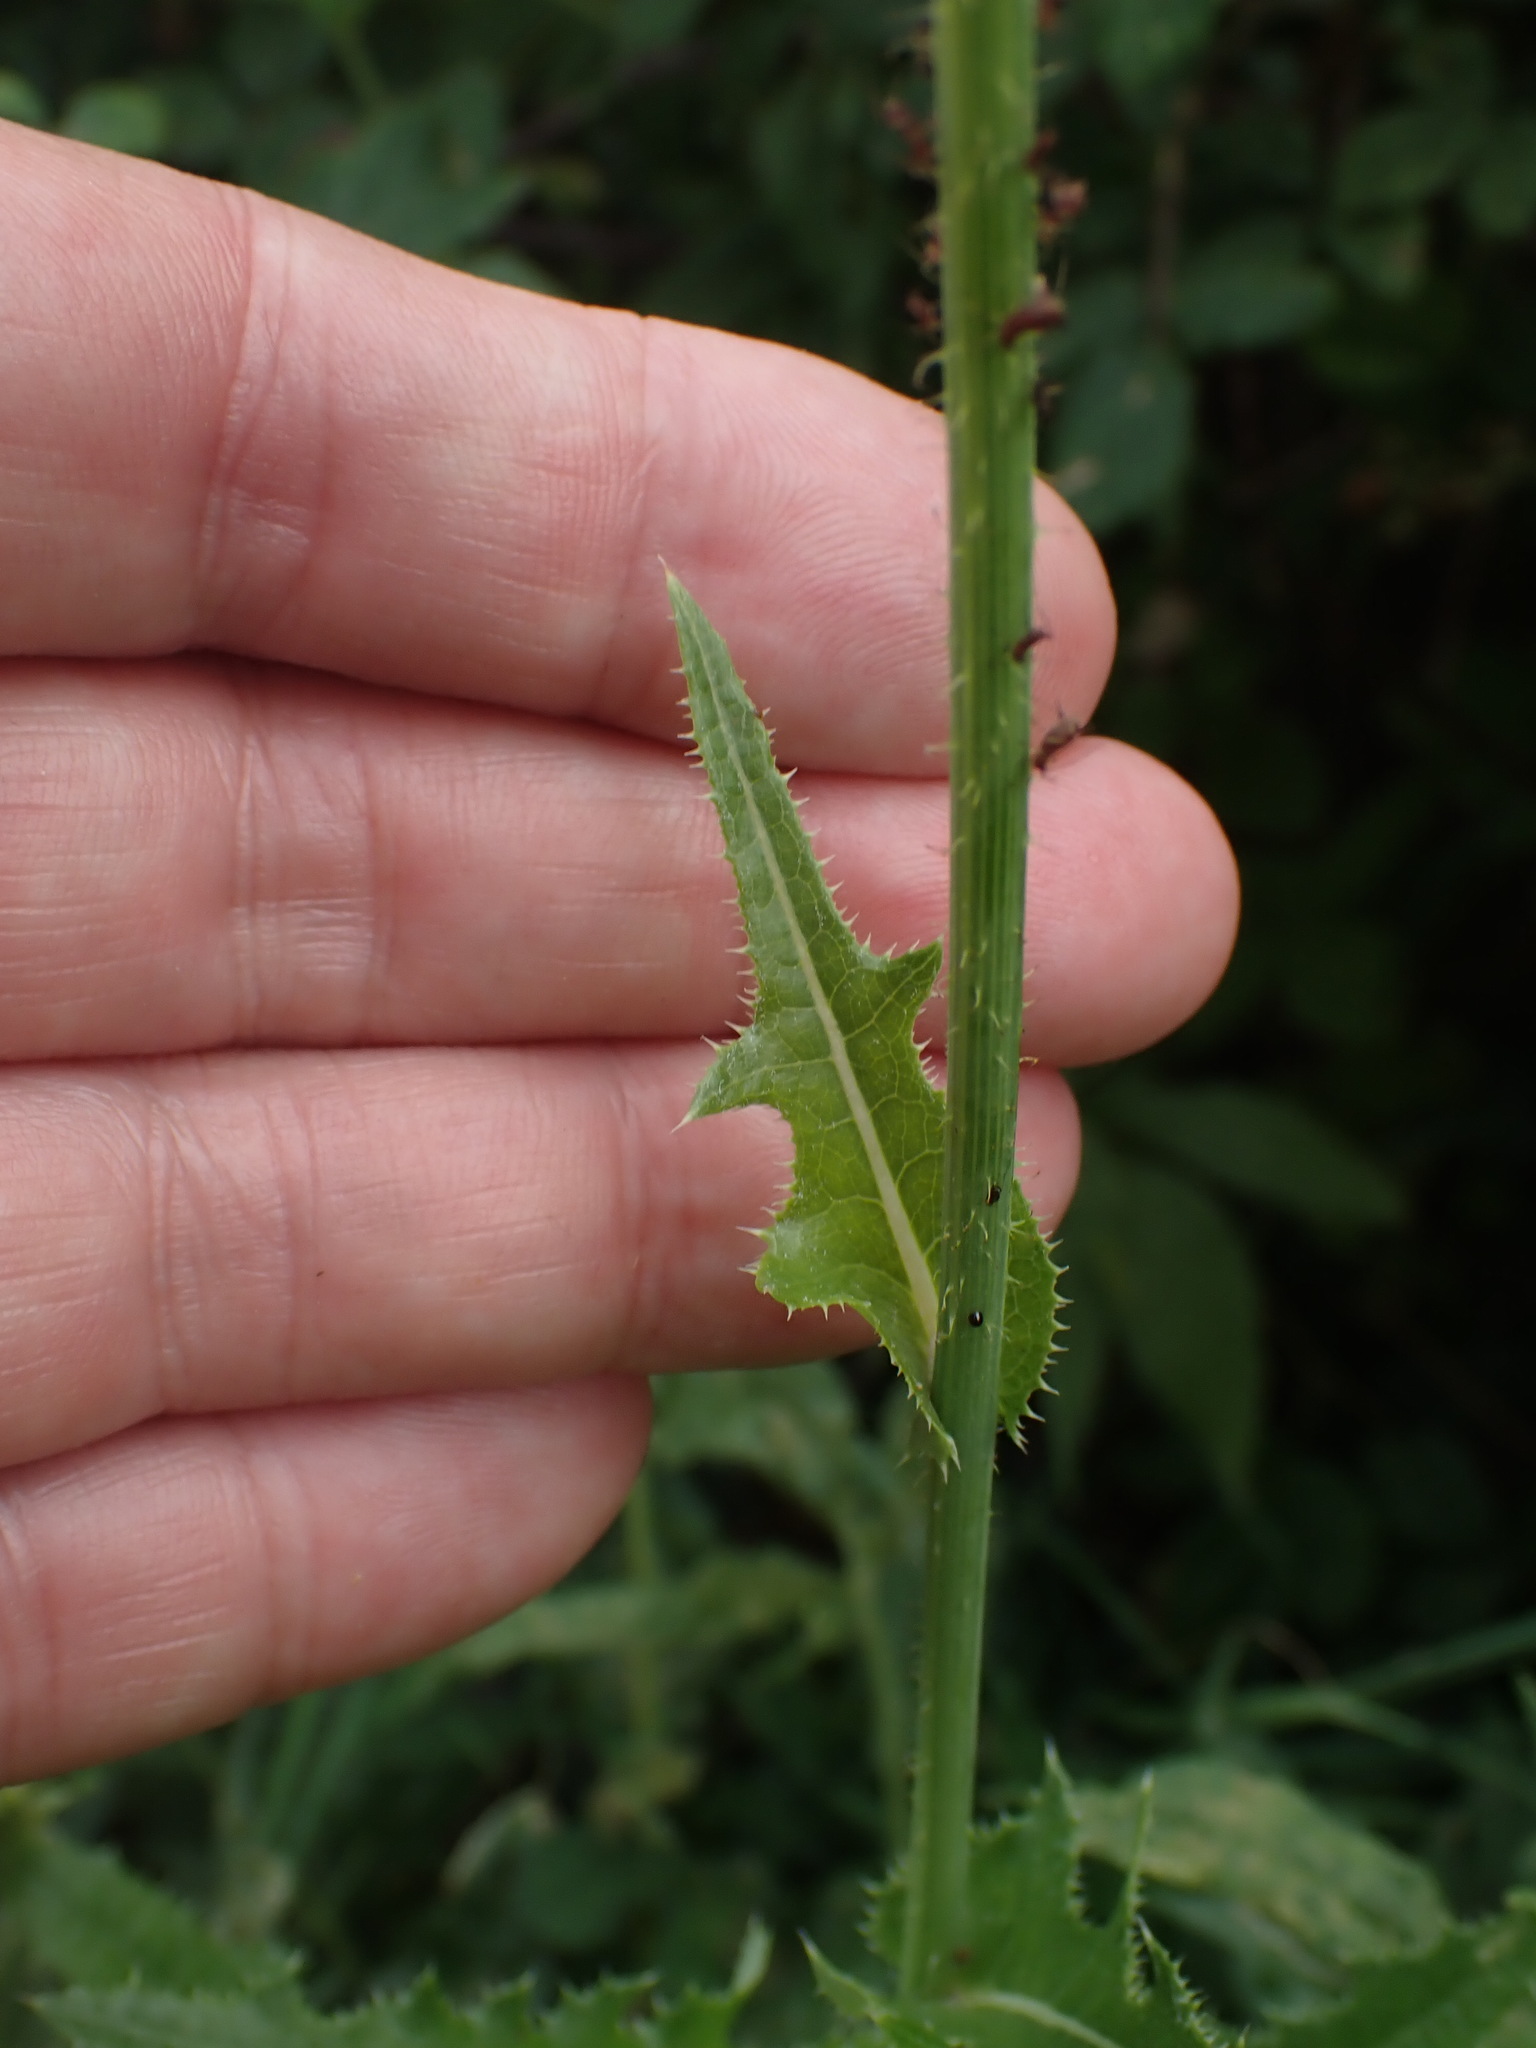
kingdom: Plantae
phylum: Tracheophyta
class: Magnoliopsida
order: Asterales
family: Asteraceae
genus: Sonchus
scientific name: Sonchus arvensis
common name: Perennial sow-thistle
